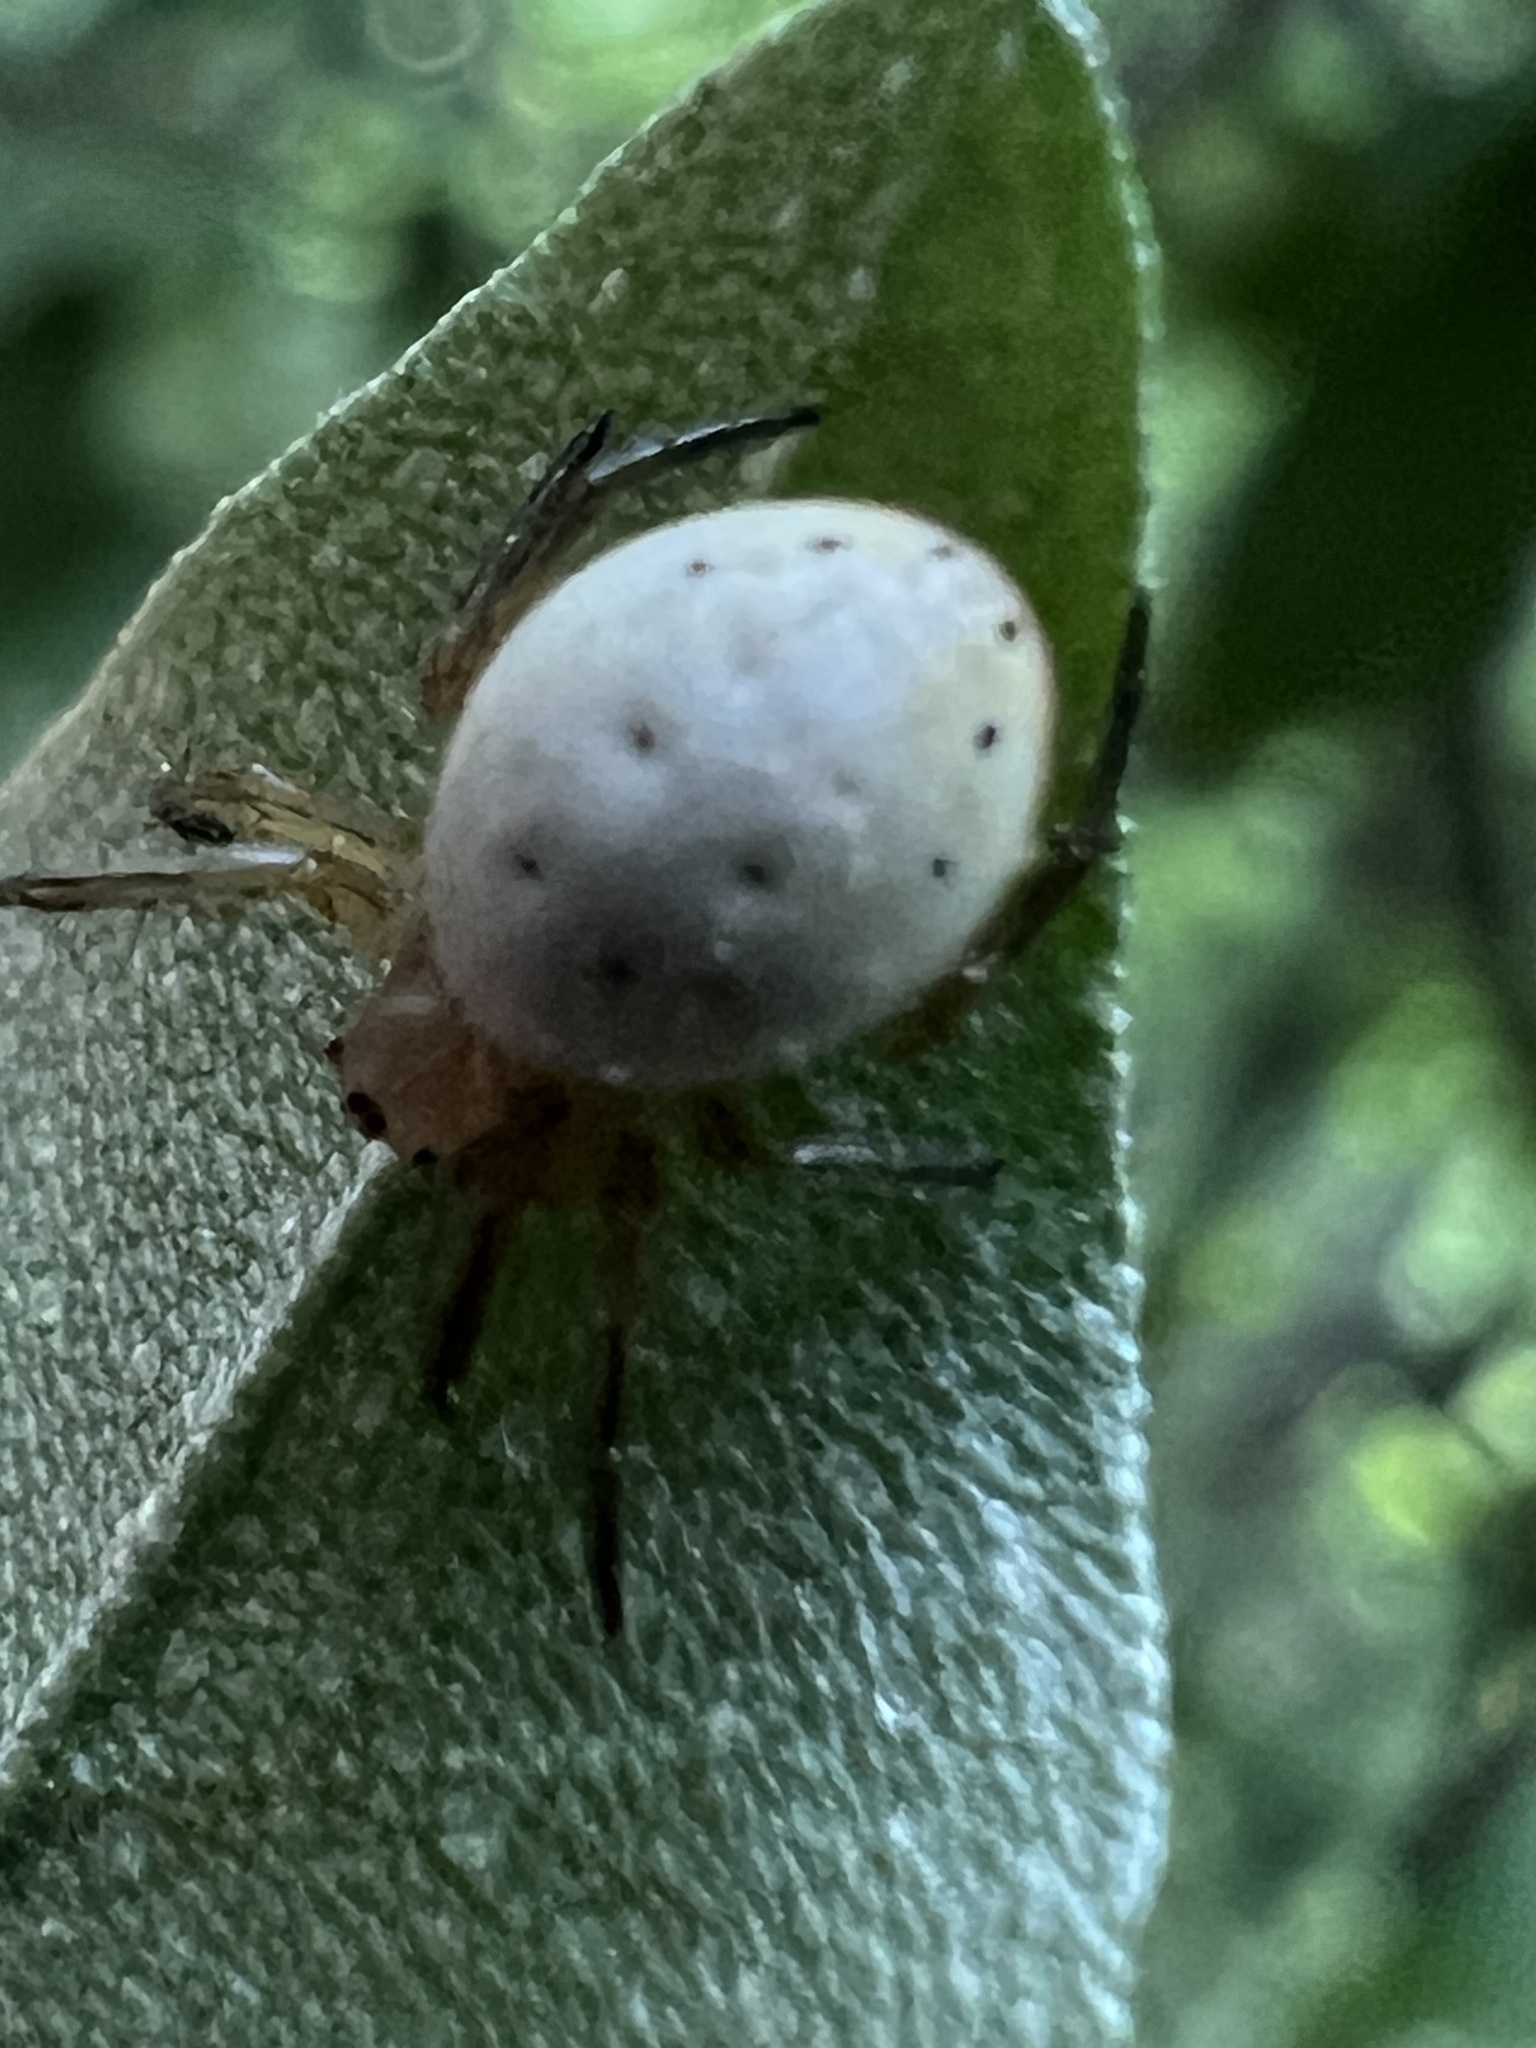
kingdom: Animalia
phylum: Arthropoda
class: Arachnida
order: Araneae
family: Araneidae
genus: Araniella
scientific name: Araniella displicata
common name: Sixspotted orb weaver
